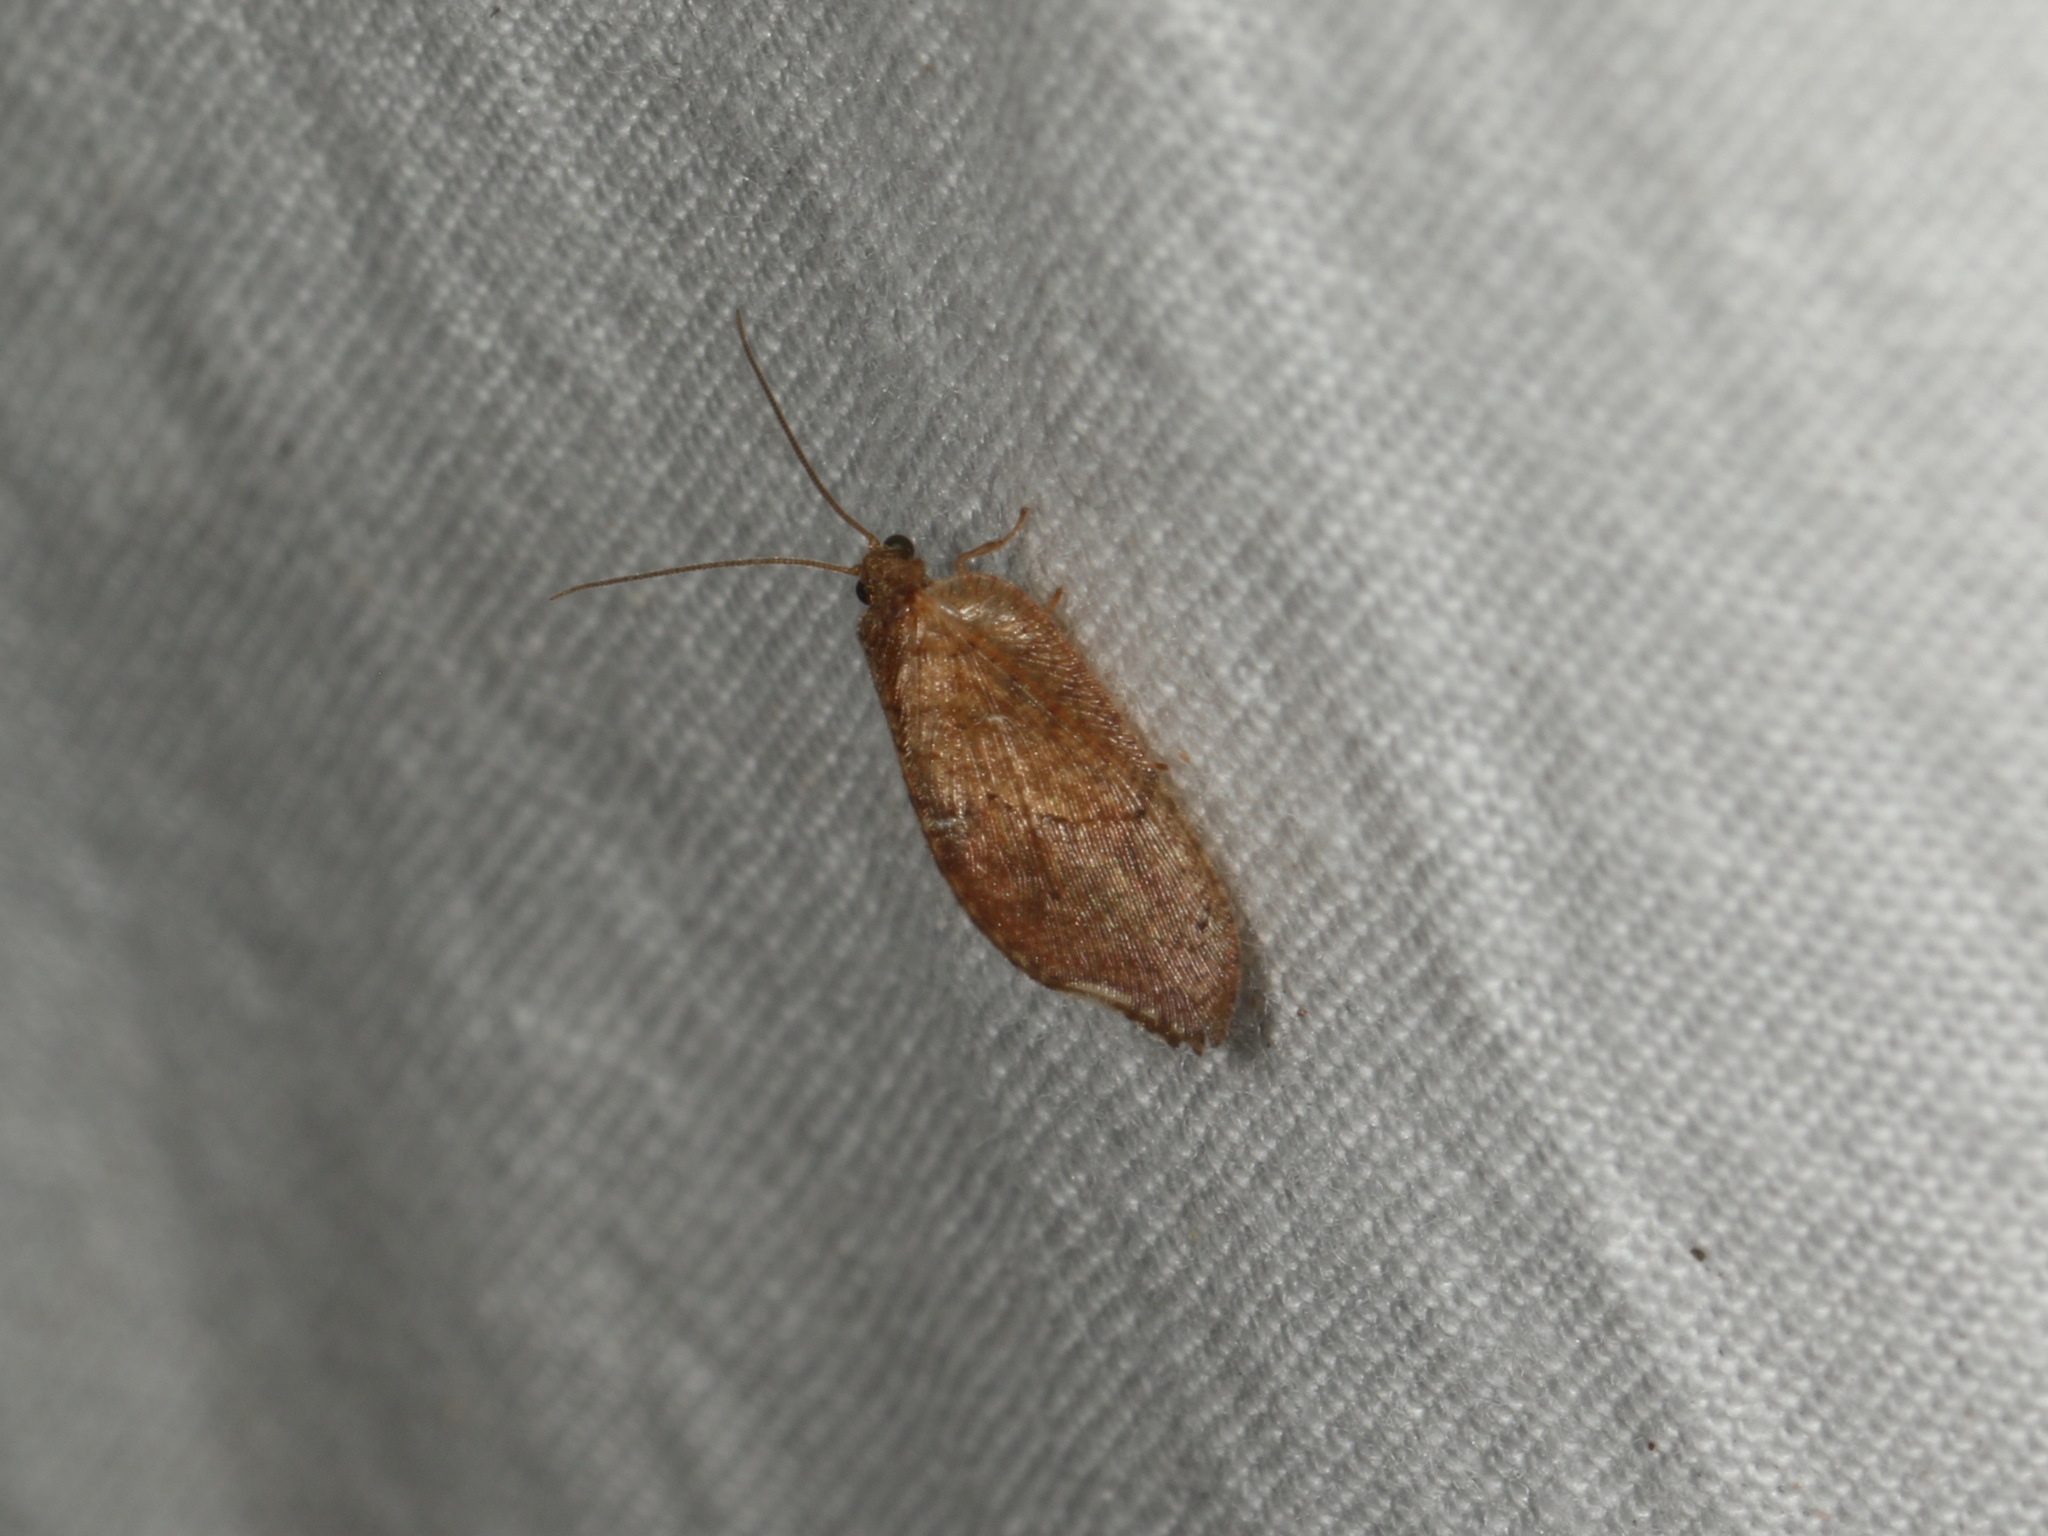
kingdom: Animalia
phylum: Arthropoda
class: Insecta
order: Neuroptera
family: Hemerobiidae
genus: Drepanacra
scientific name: Drepanacra binocula
